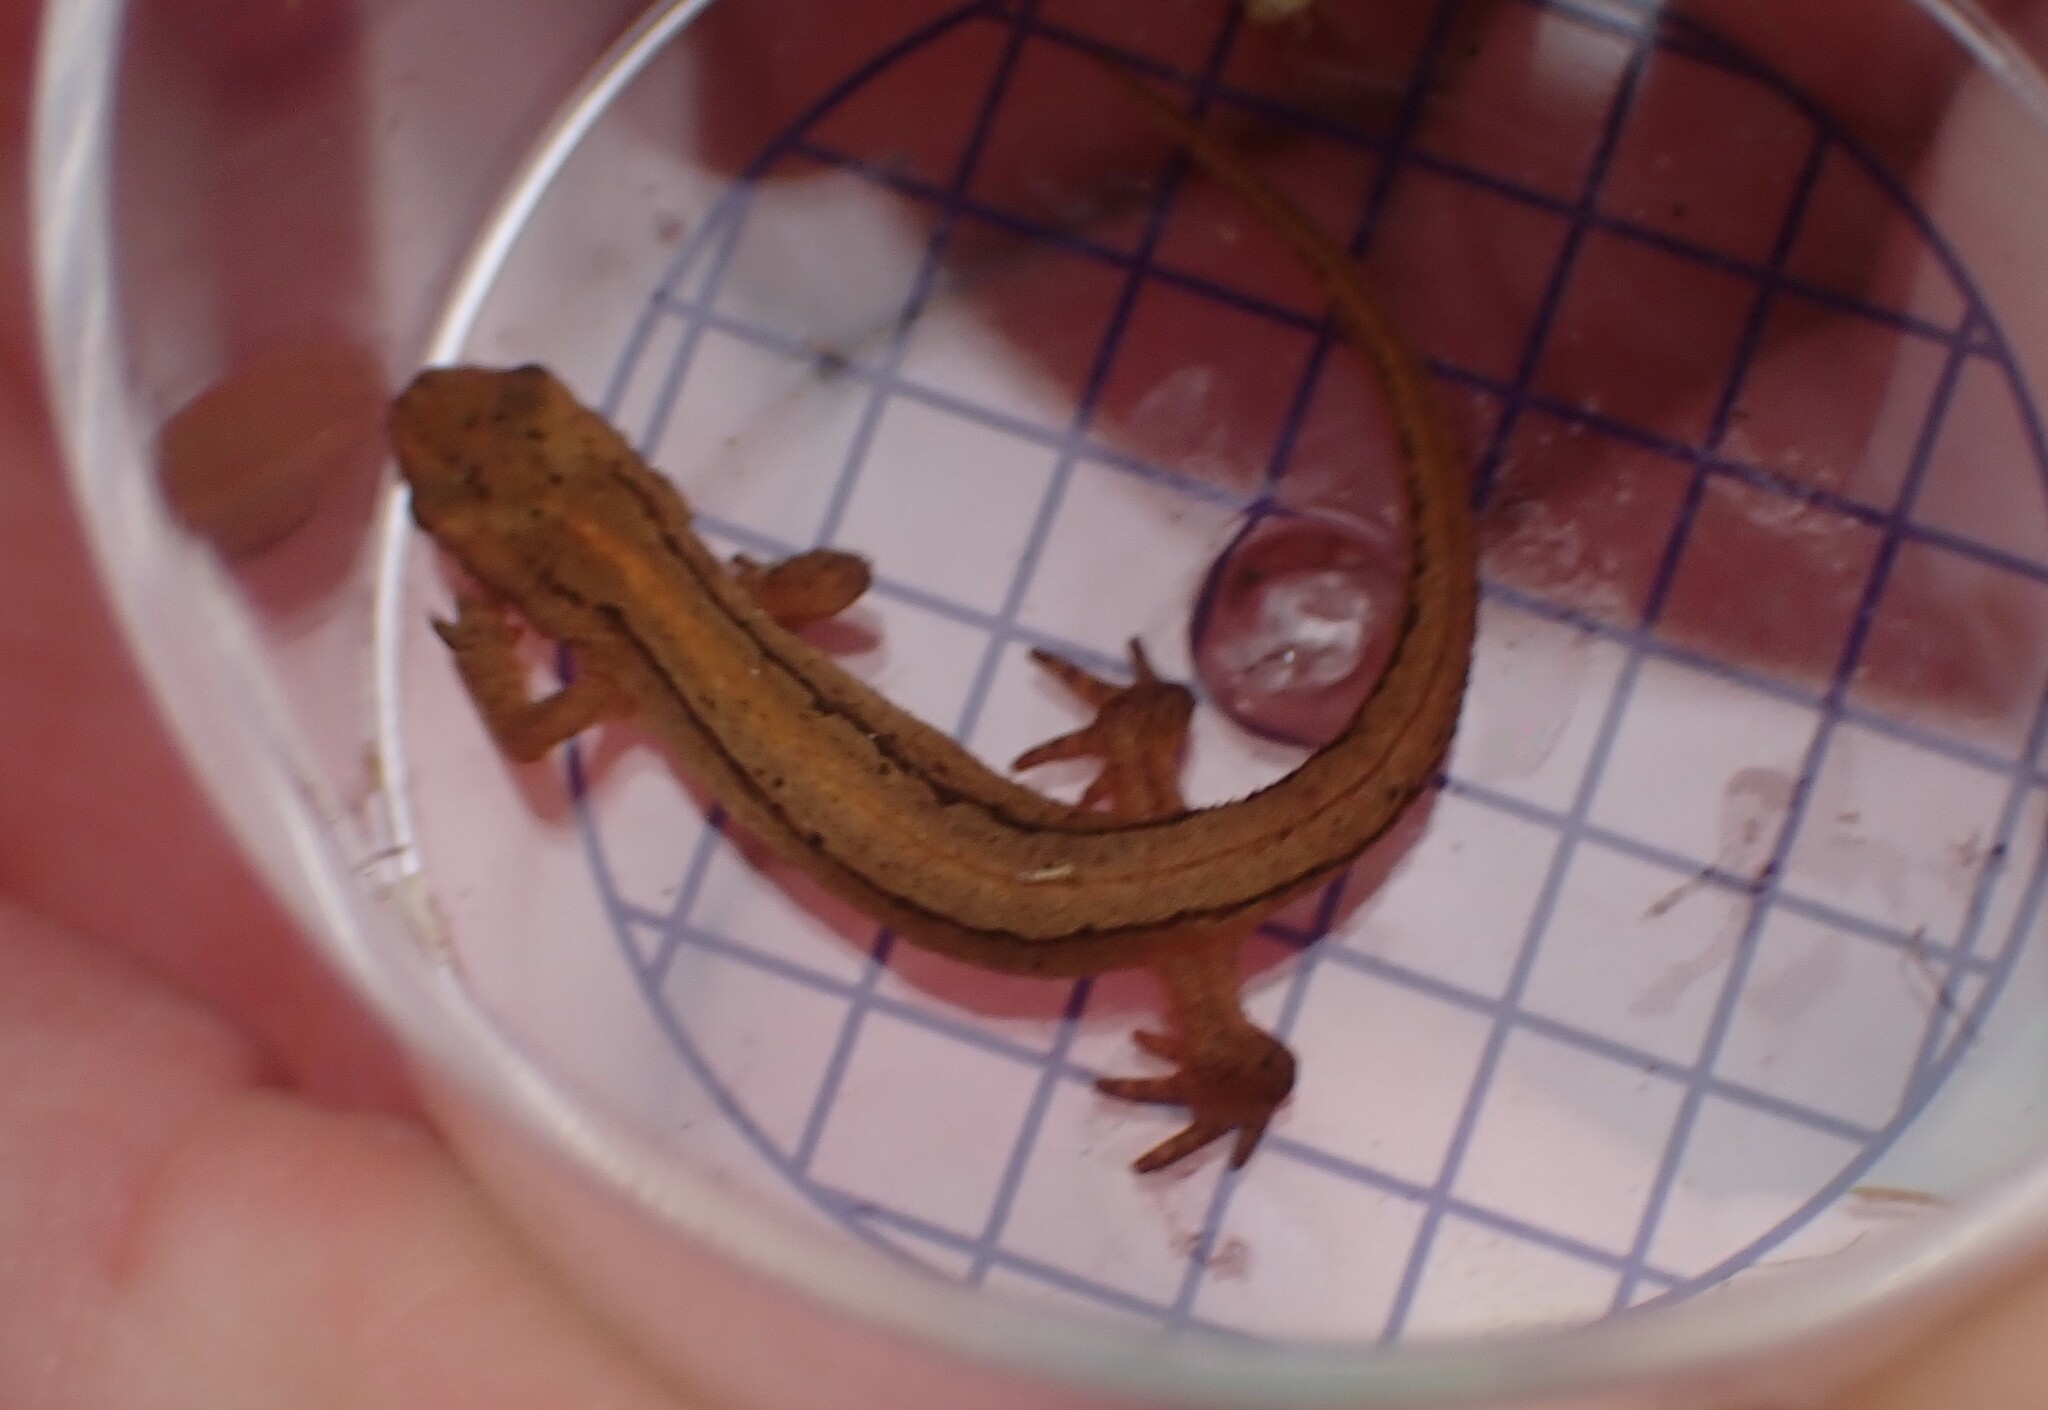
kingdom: Animalia
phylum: Chordata
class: Amphibia
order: Caudata
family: Salamandridae
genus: Lissotriton
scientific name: Lissotriton vulgaris
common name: Smooth newt
